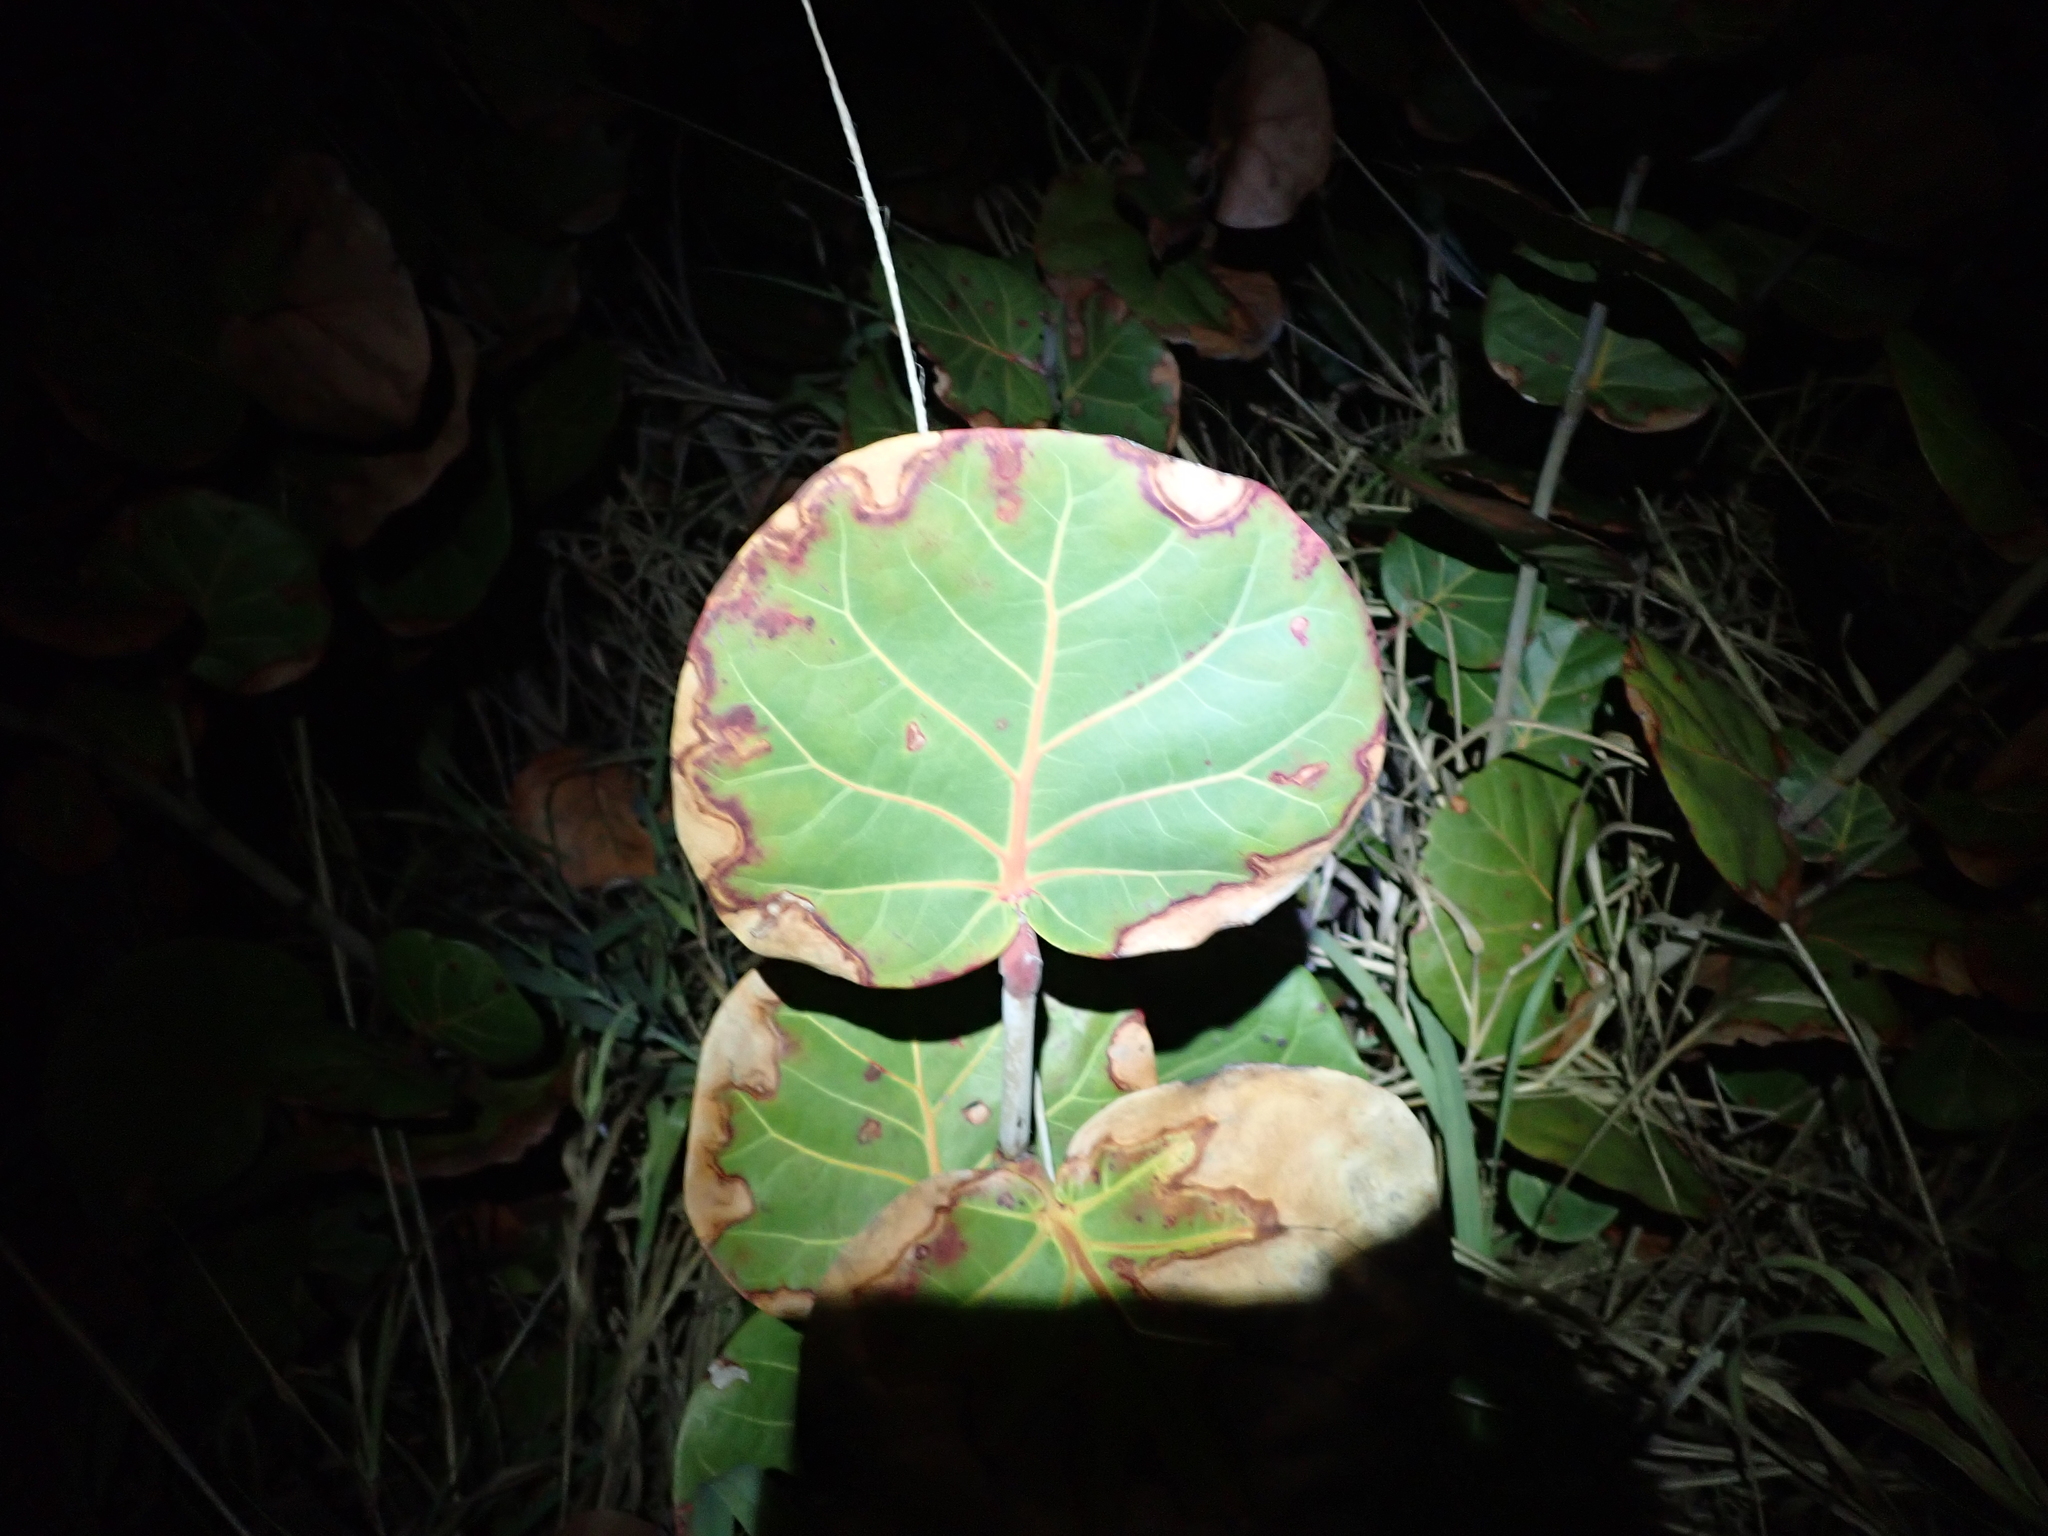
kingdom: Plantae
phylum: Tracheophyta
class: Magnoliopsida
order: Caryophyllales
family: Polygonaceae
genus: Coccoloba
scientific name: Coccoloba uvifera
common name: Seagrape
